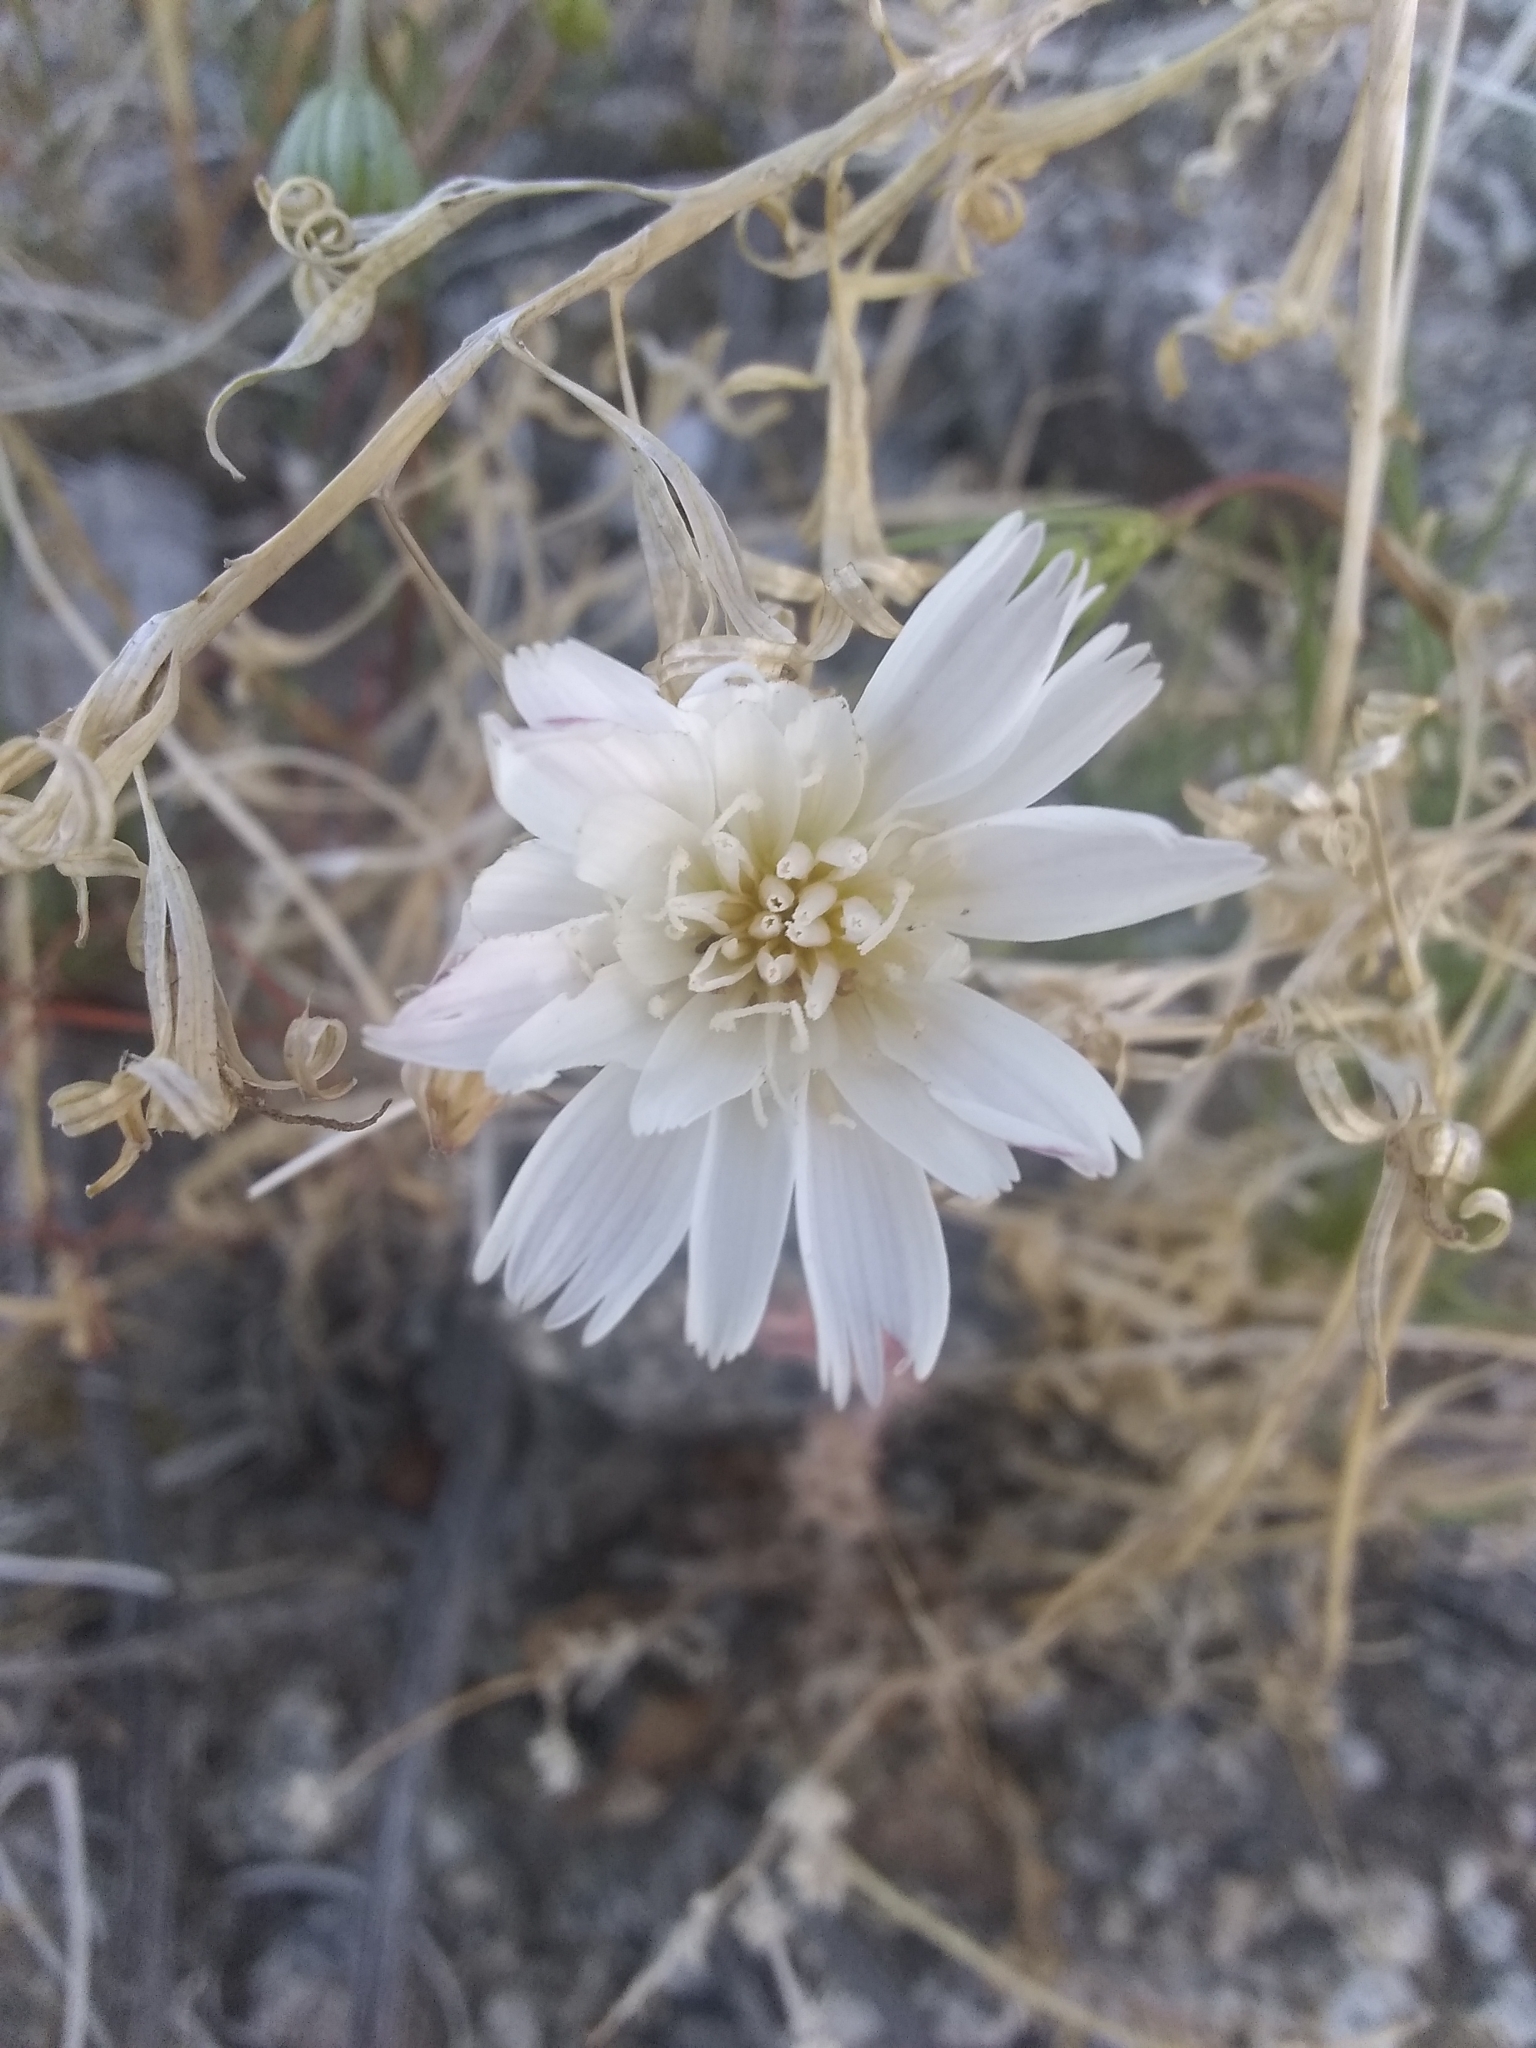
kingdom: Plantae
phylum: Tracheophyta
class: Magnoliopsida
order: Asterales
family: Asteraceae
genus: Rafinesquia
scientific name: Rafinesquia neomexicana
